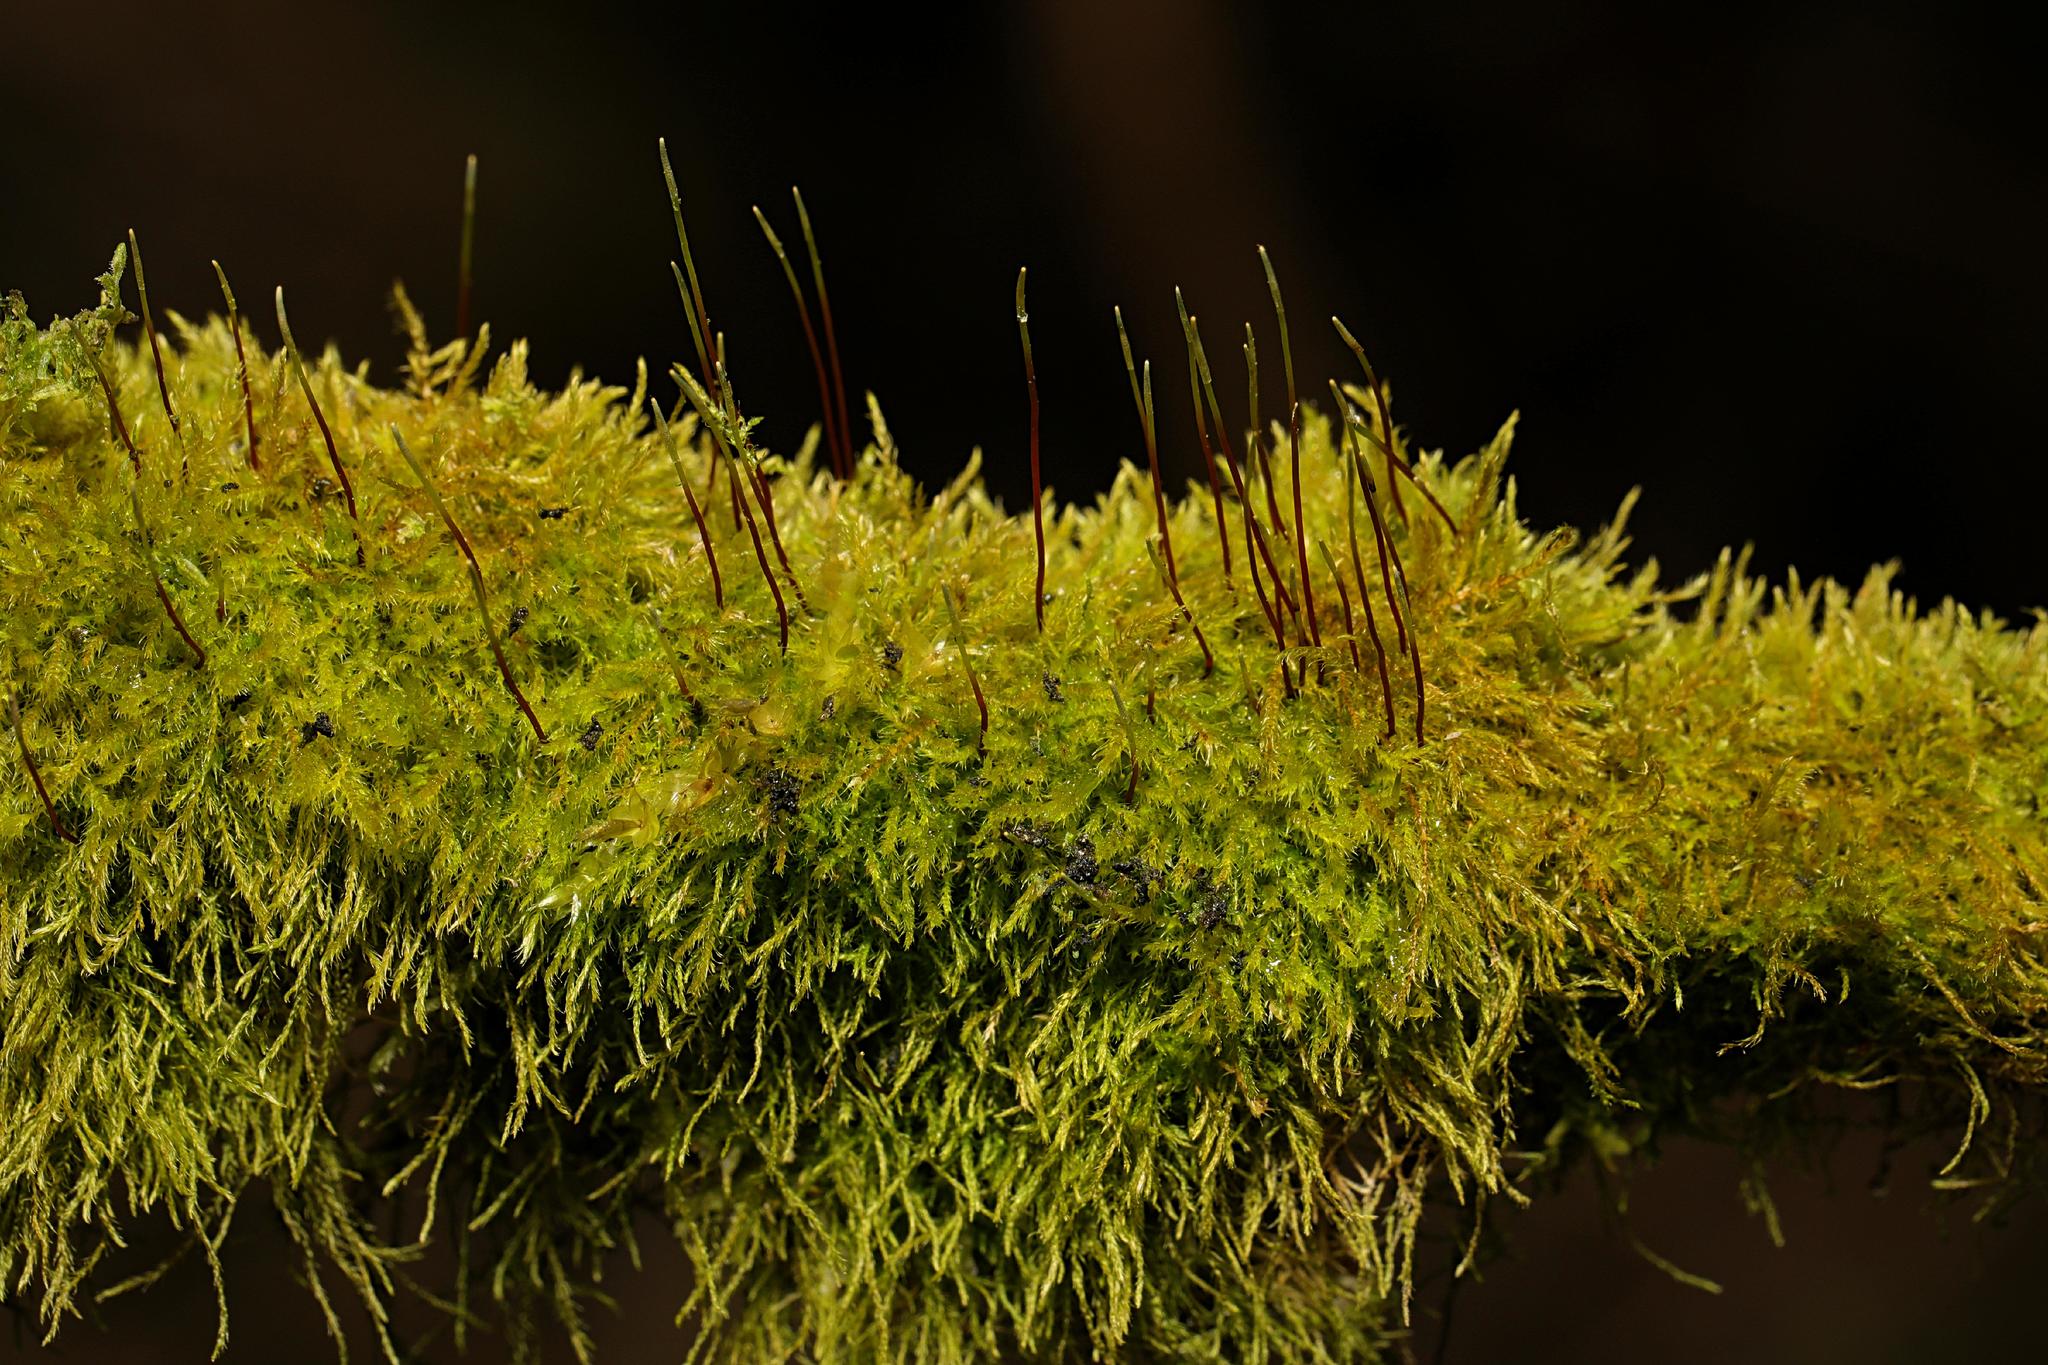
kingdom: Plantae
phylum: Bryophyta
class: Bryopsida
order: Hypnales
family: Amblystegiaceae
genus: Amblystegium
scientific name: Amblystegium serpens
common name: Jurkatzka's feather moss
